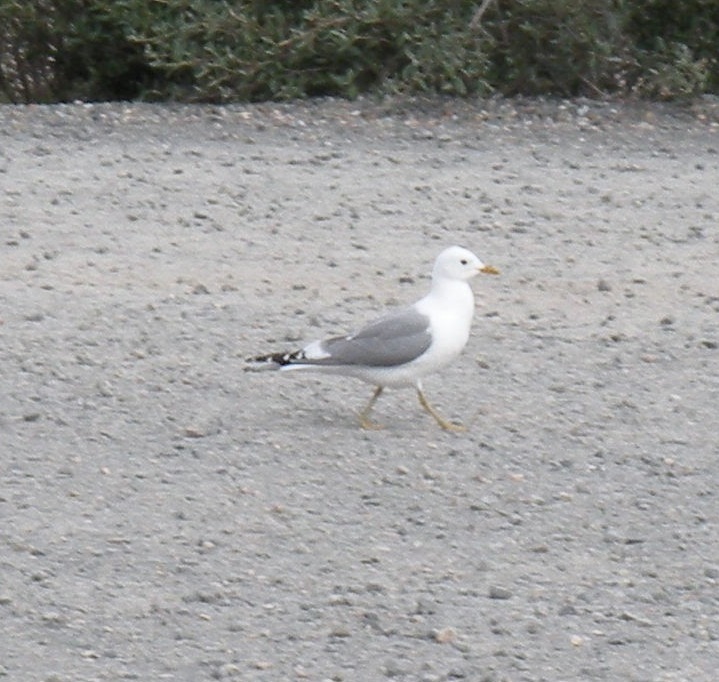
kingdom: Animalia
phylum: Chordata
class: Aves
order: Charadriiformes
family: Laridae
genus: Larus
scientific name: Larus brachyrhynchus
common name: Short-billed gull
